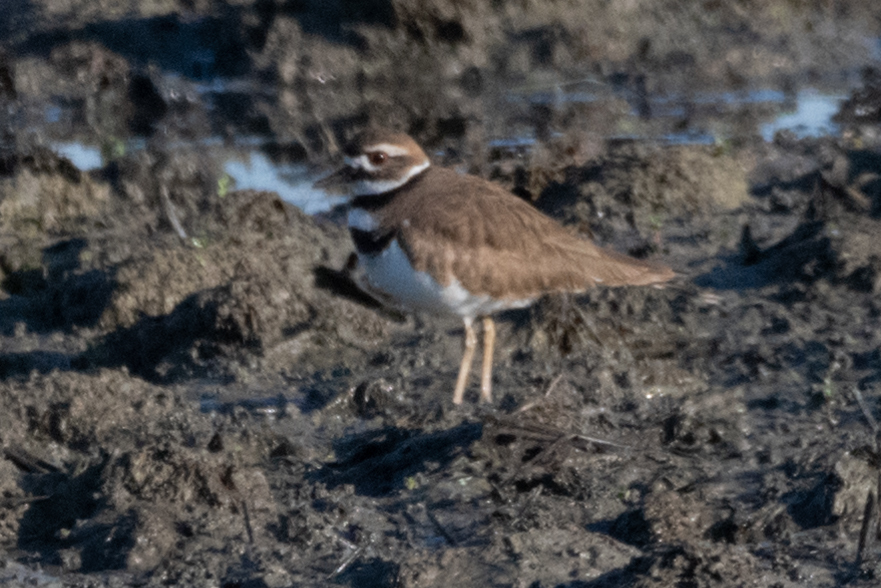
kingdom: Animalia
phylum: Chordata
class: Aves
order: Charadriiformes
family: Charadriidae
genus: Charadrius
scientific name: Charadrius vociferus
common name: Killdeer
